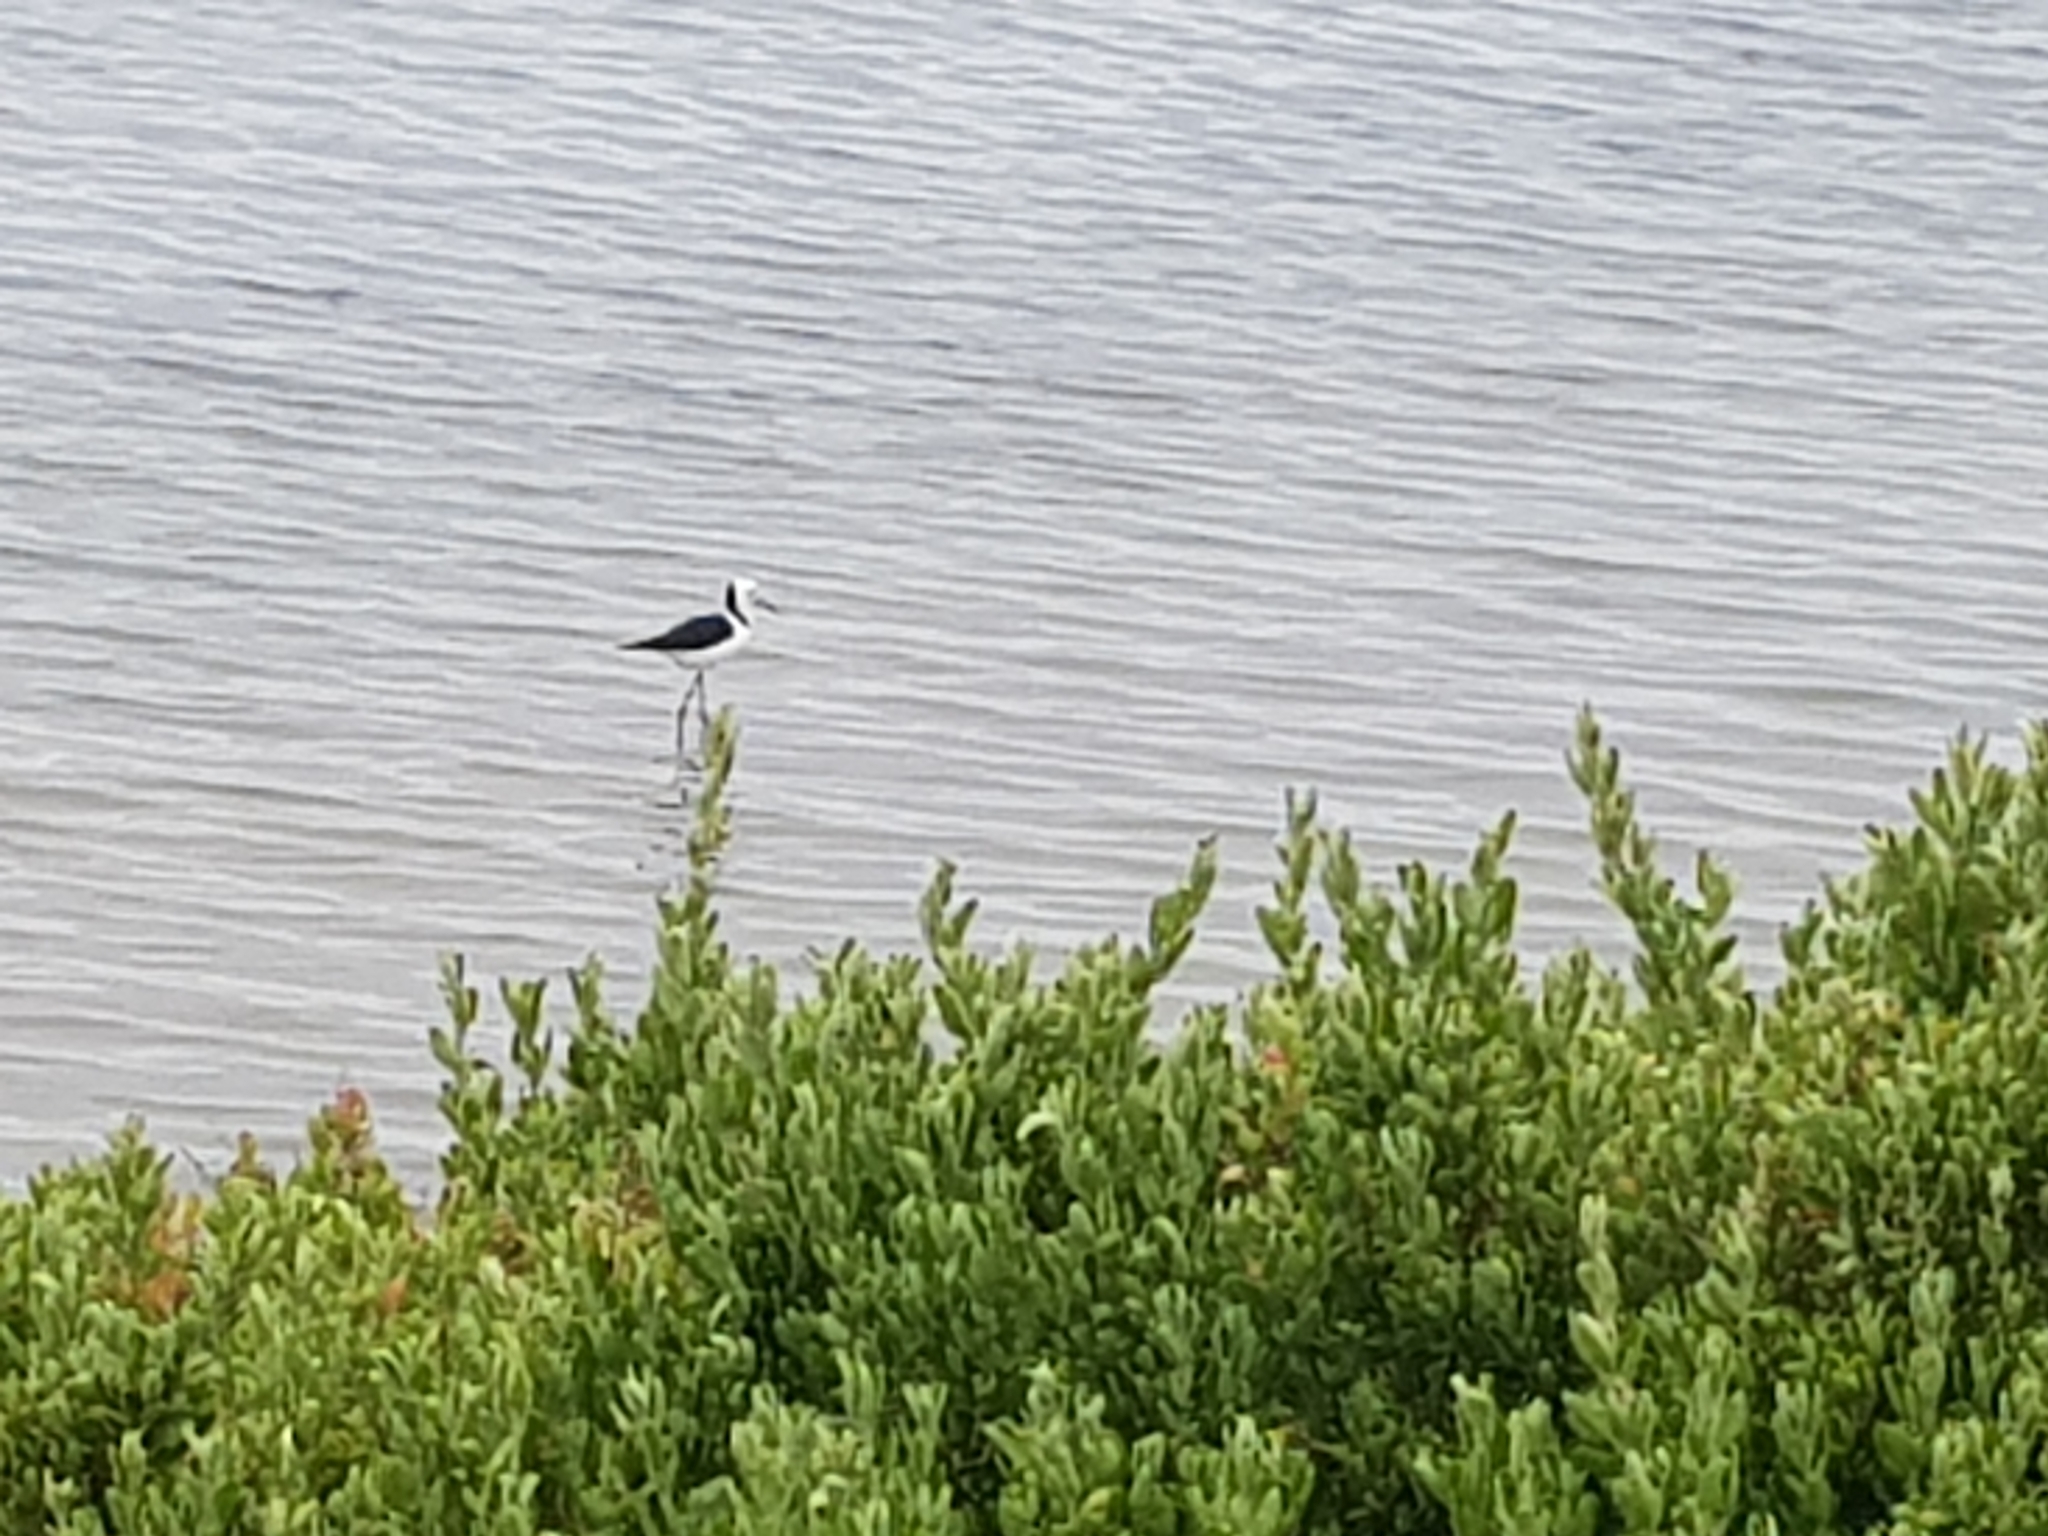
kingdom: Animalia
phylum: Chordata
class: Aves
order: Charadriiformes
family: Recurvirostridae
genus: Himantopus
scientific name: Himantopus leucocephalus
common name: White-headed stilt
